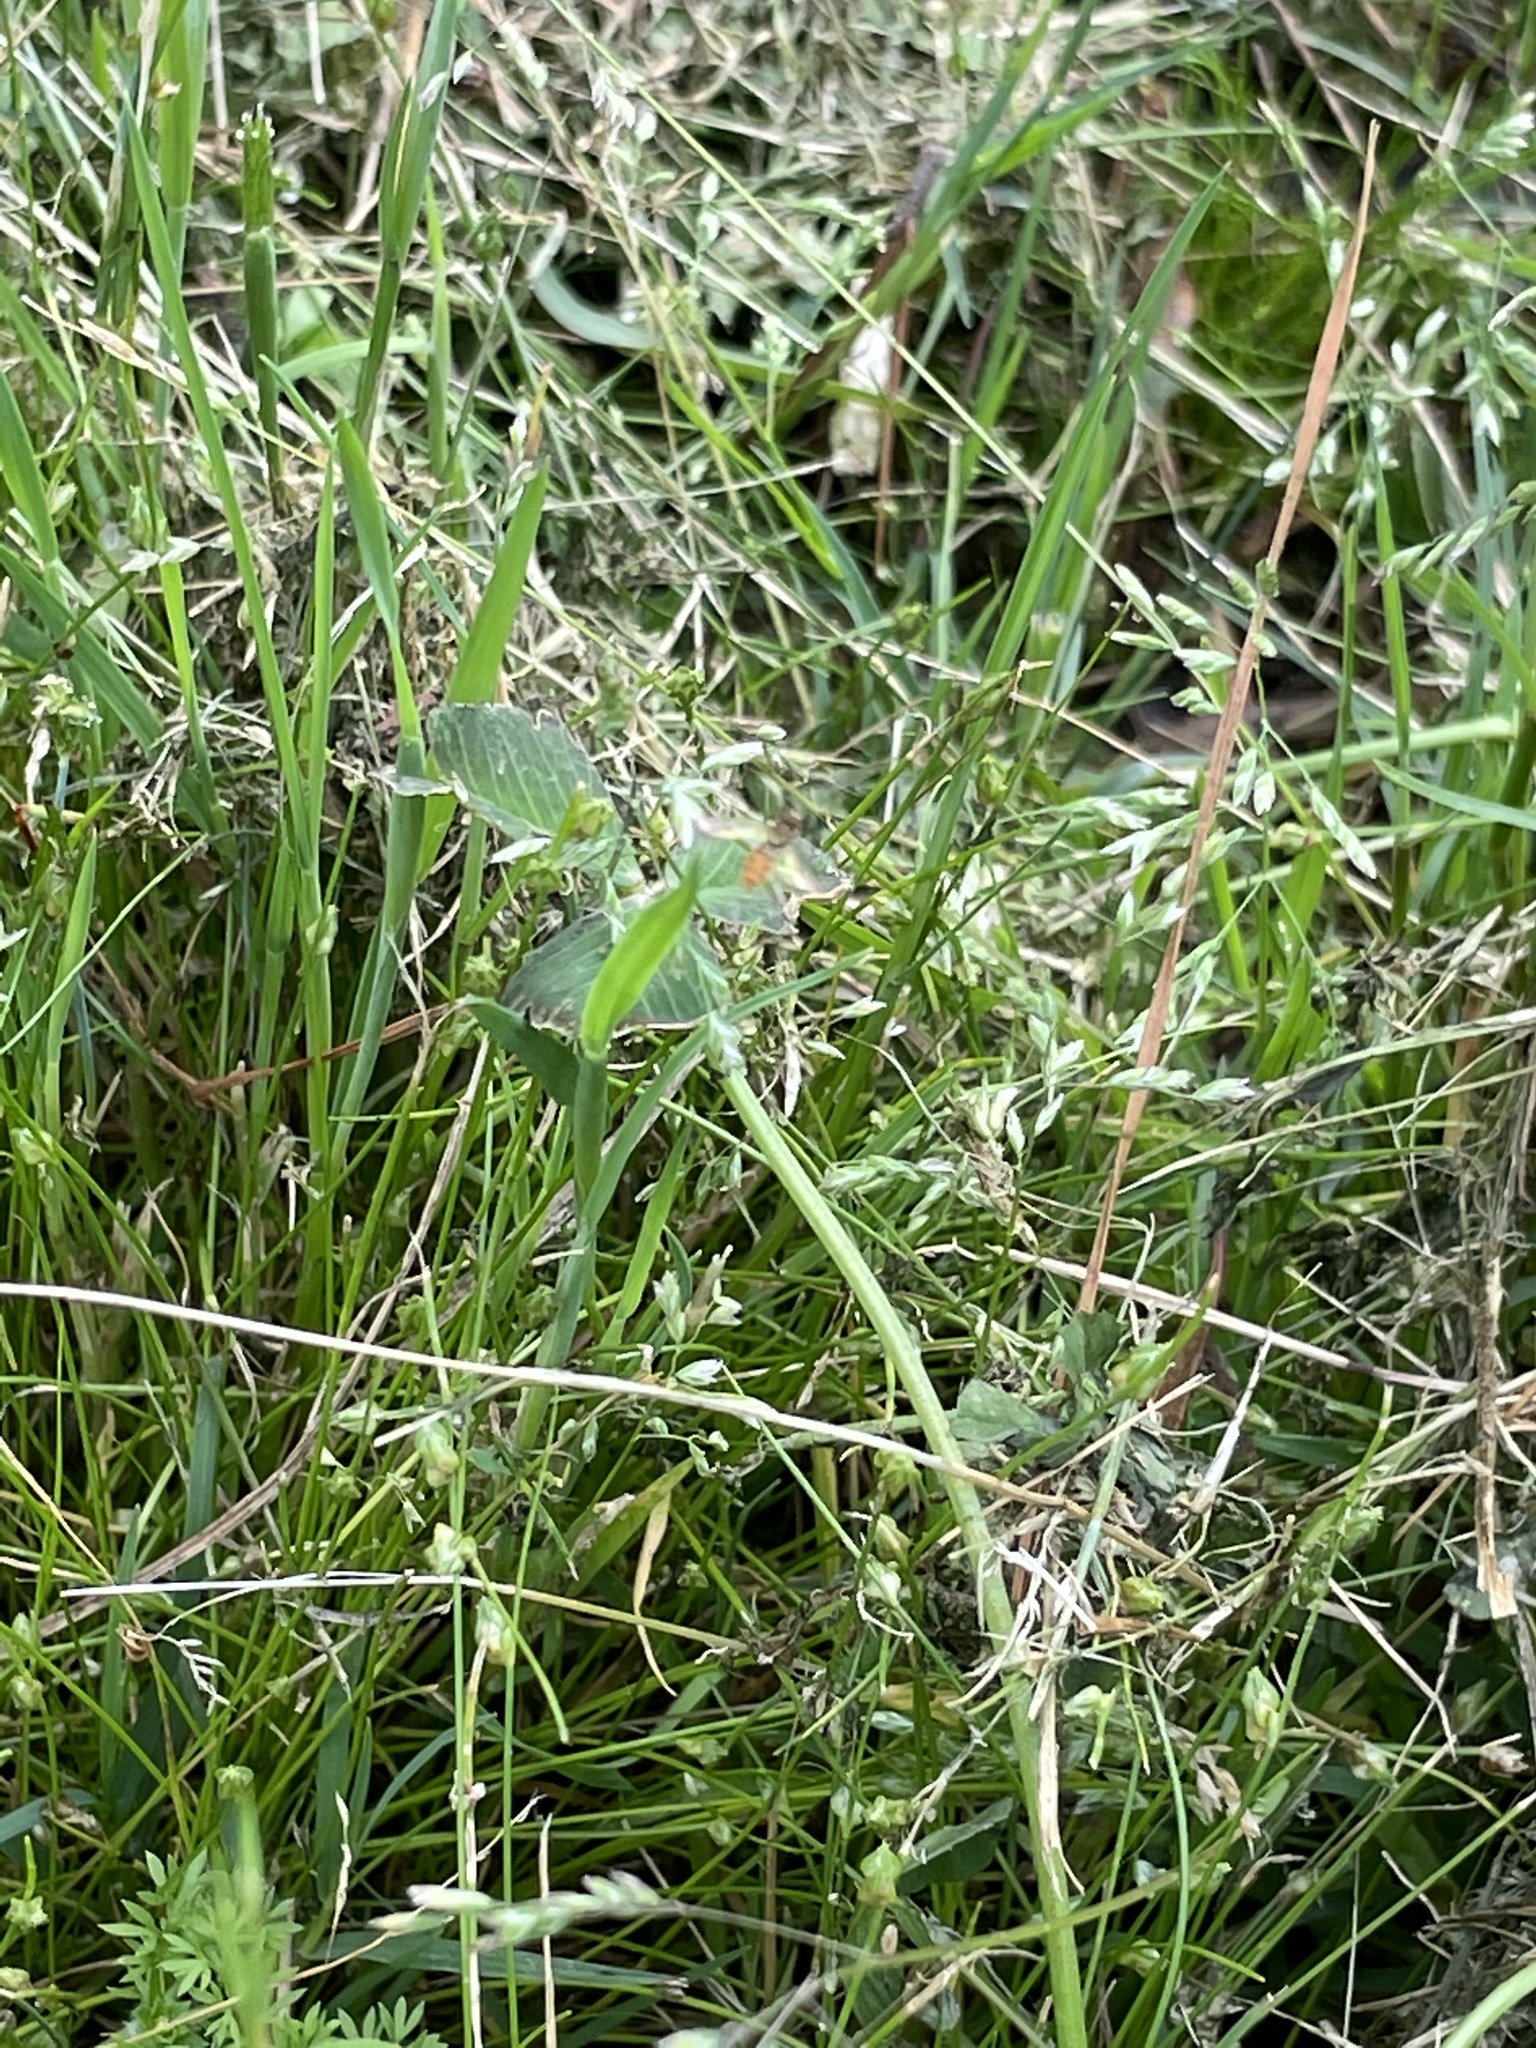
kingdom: Animalia
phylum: Arthropoda
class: Insecta
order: Diptera
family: Syrphidae
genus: Toxomerus
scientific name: Toxomerus
